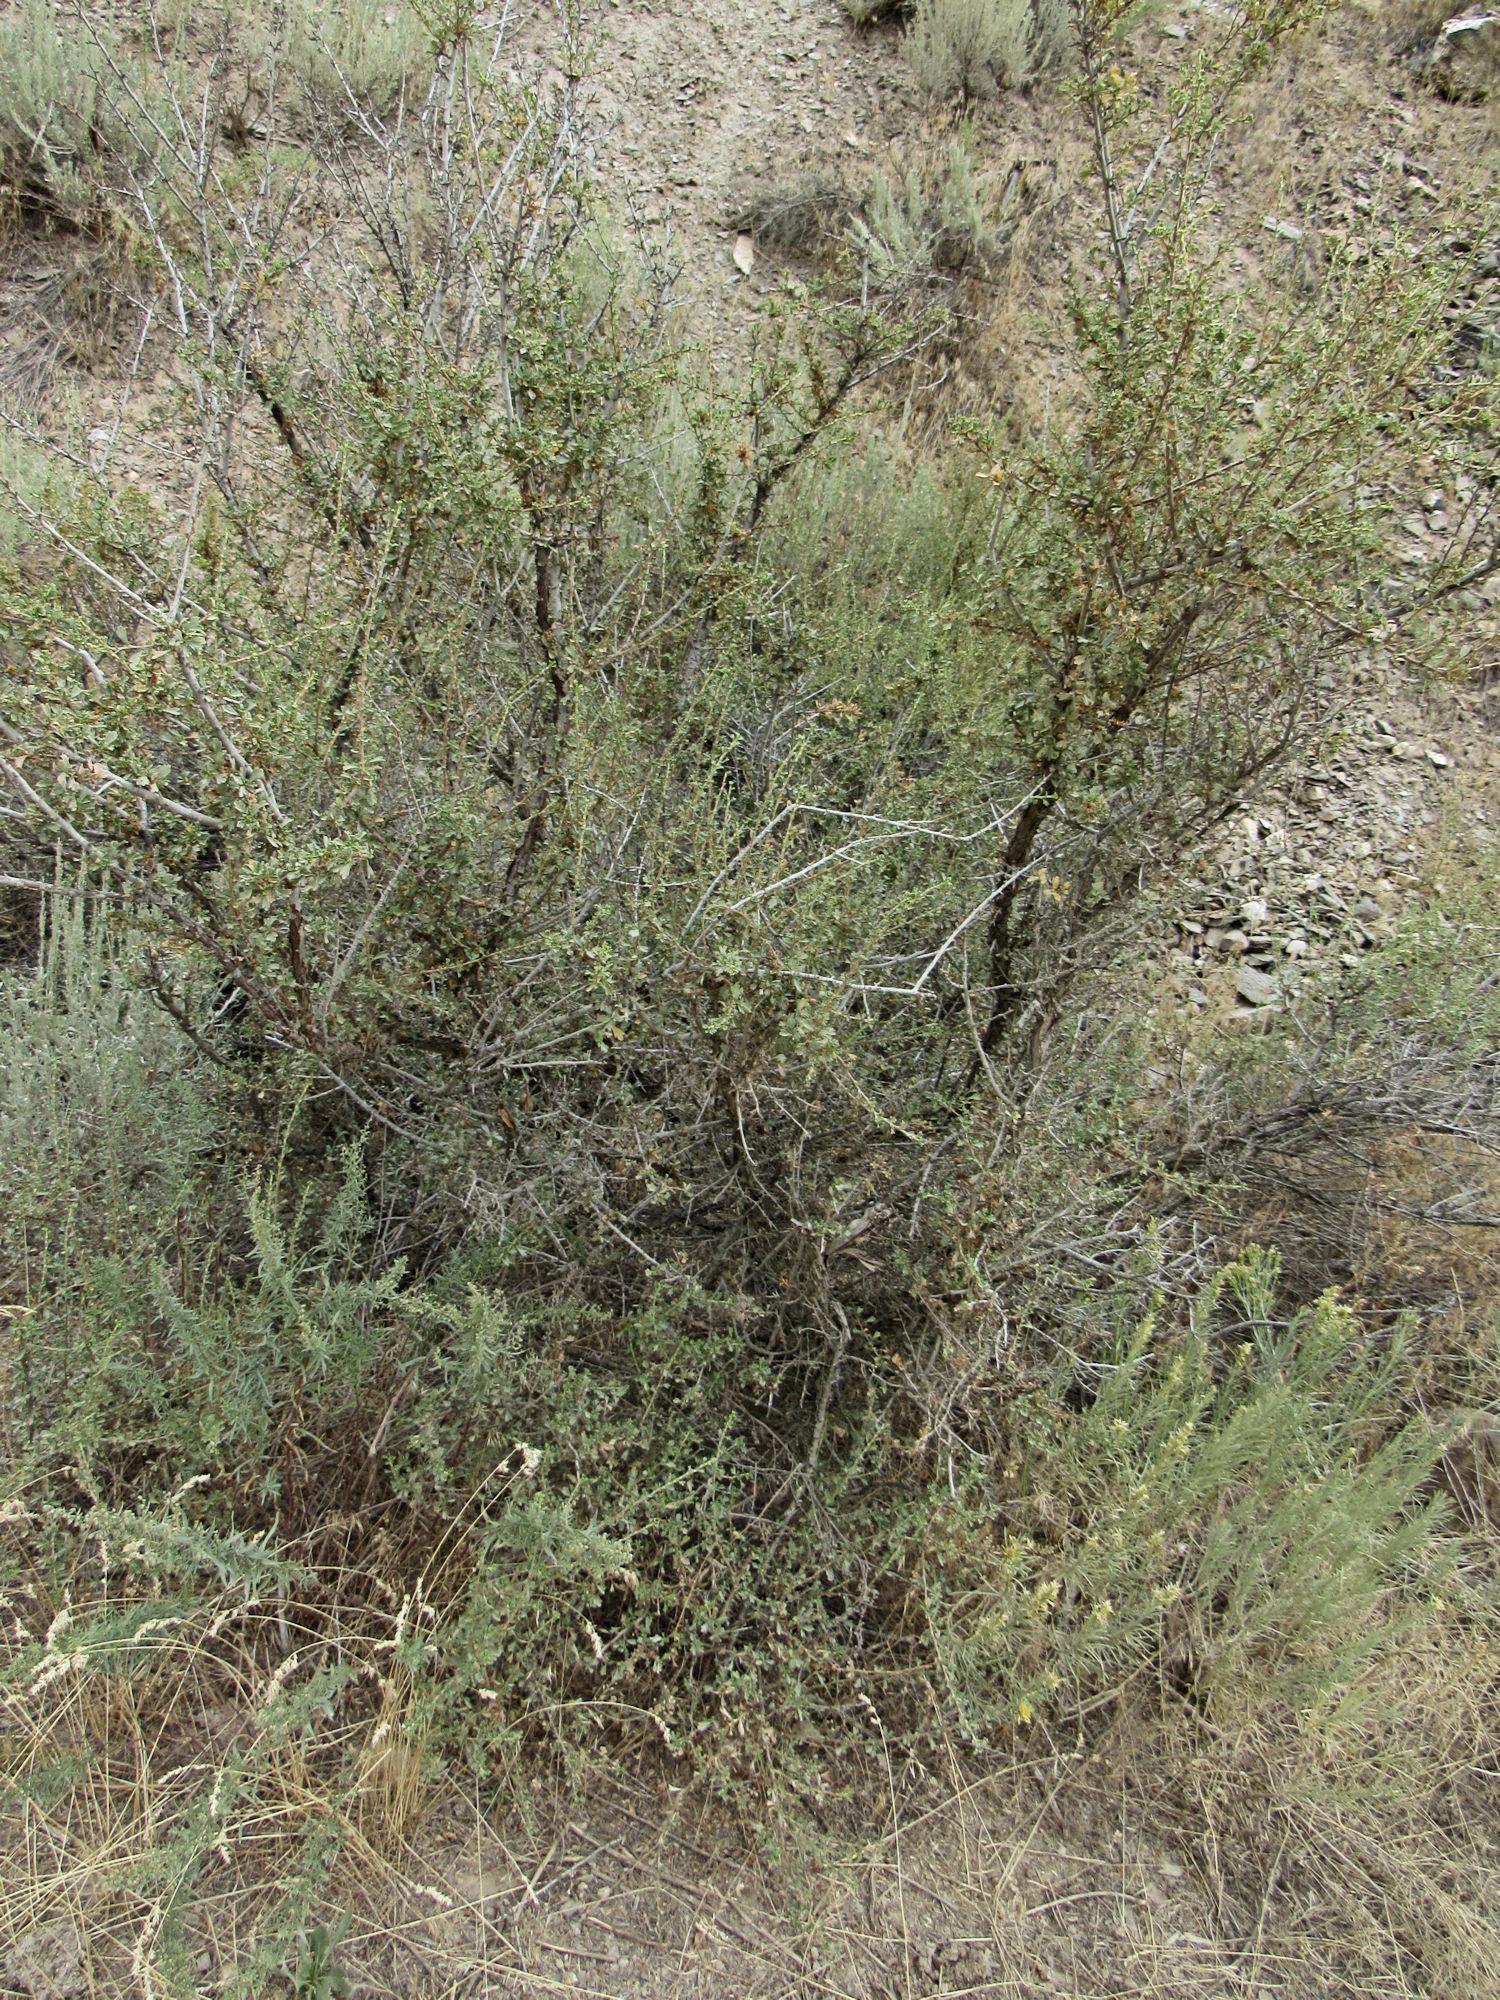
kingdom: Plantae
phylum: Tracheophyta
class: Magnoliopsida
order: Rosales
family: Rosaceae
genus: Purshia
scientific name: Purshia tridentata
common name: Antelope bitterbrush
